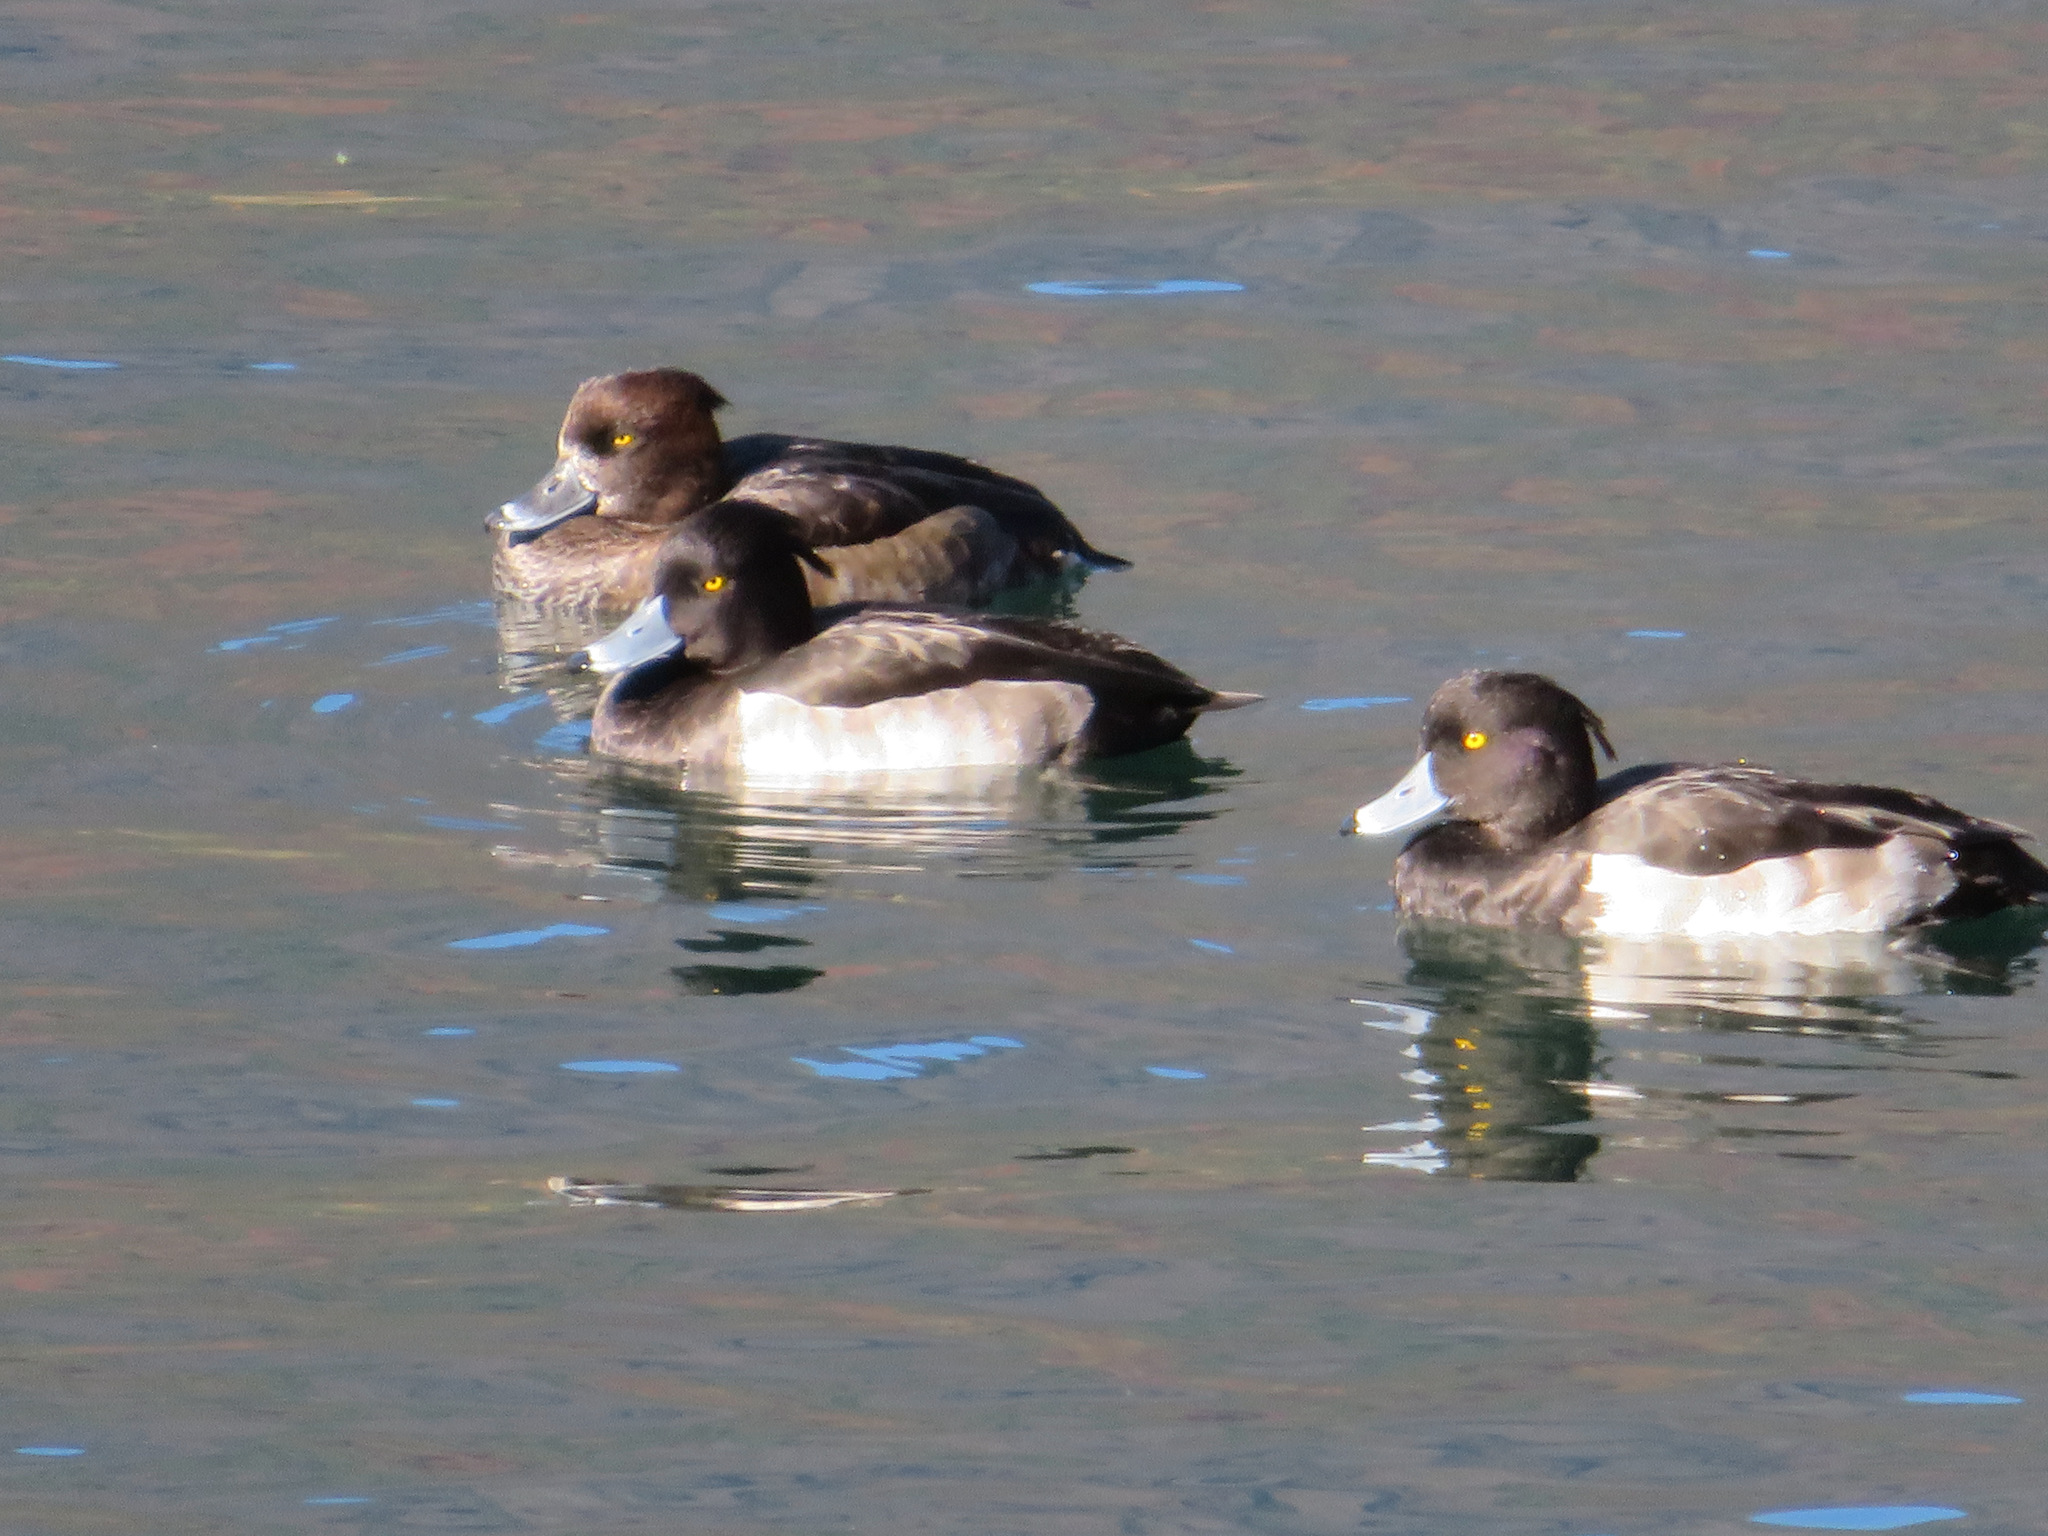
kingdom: Animalia
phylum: Chordata
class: Aves
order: Anseriformes
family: Anatidae
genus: Aythya
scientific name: Aythya fuligula
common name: Tufted duck
